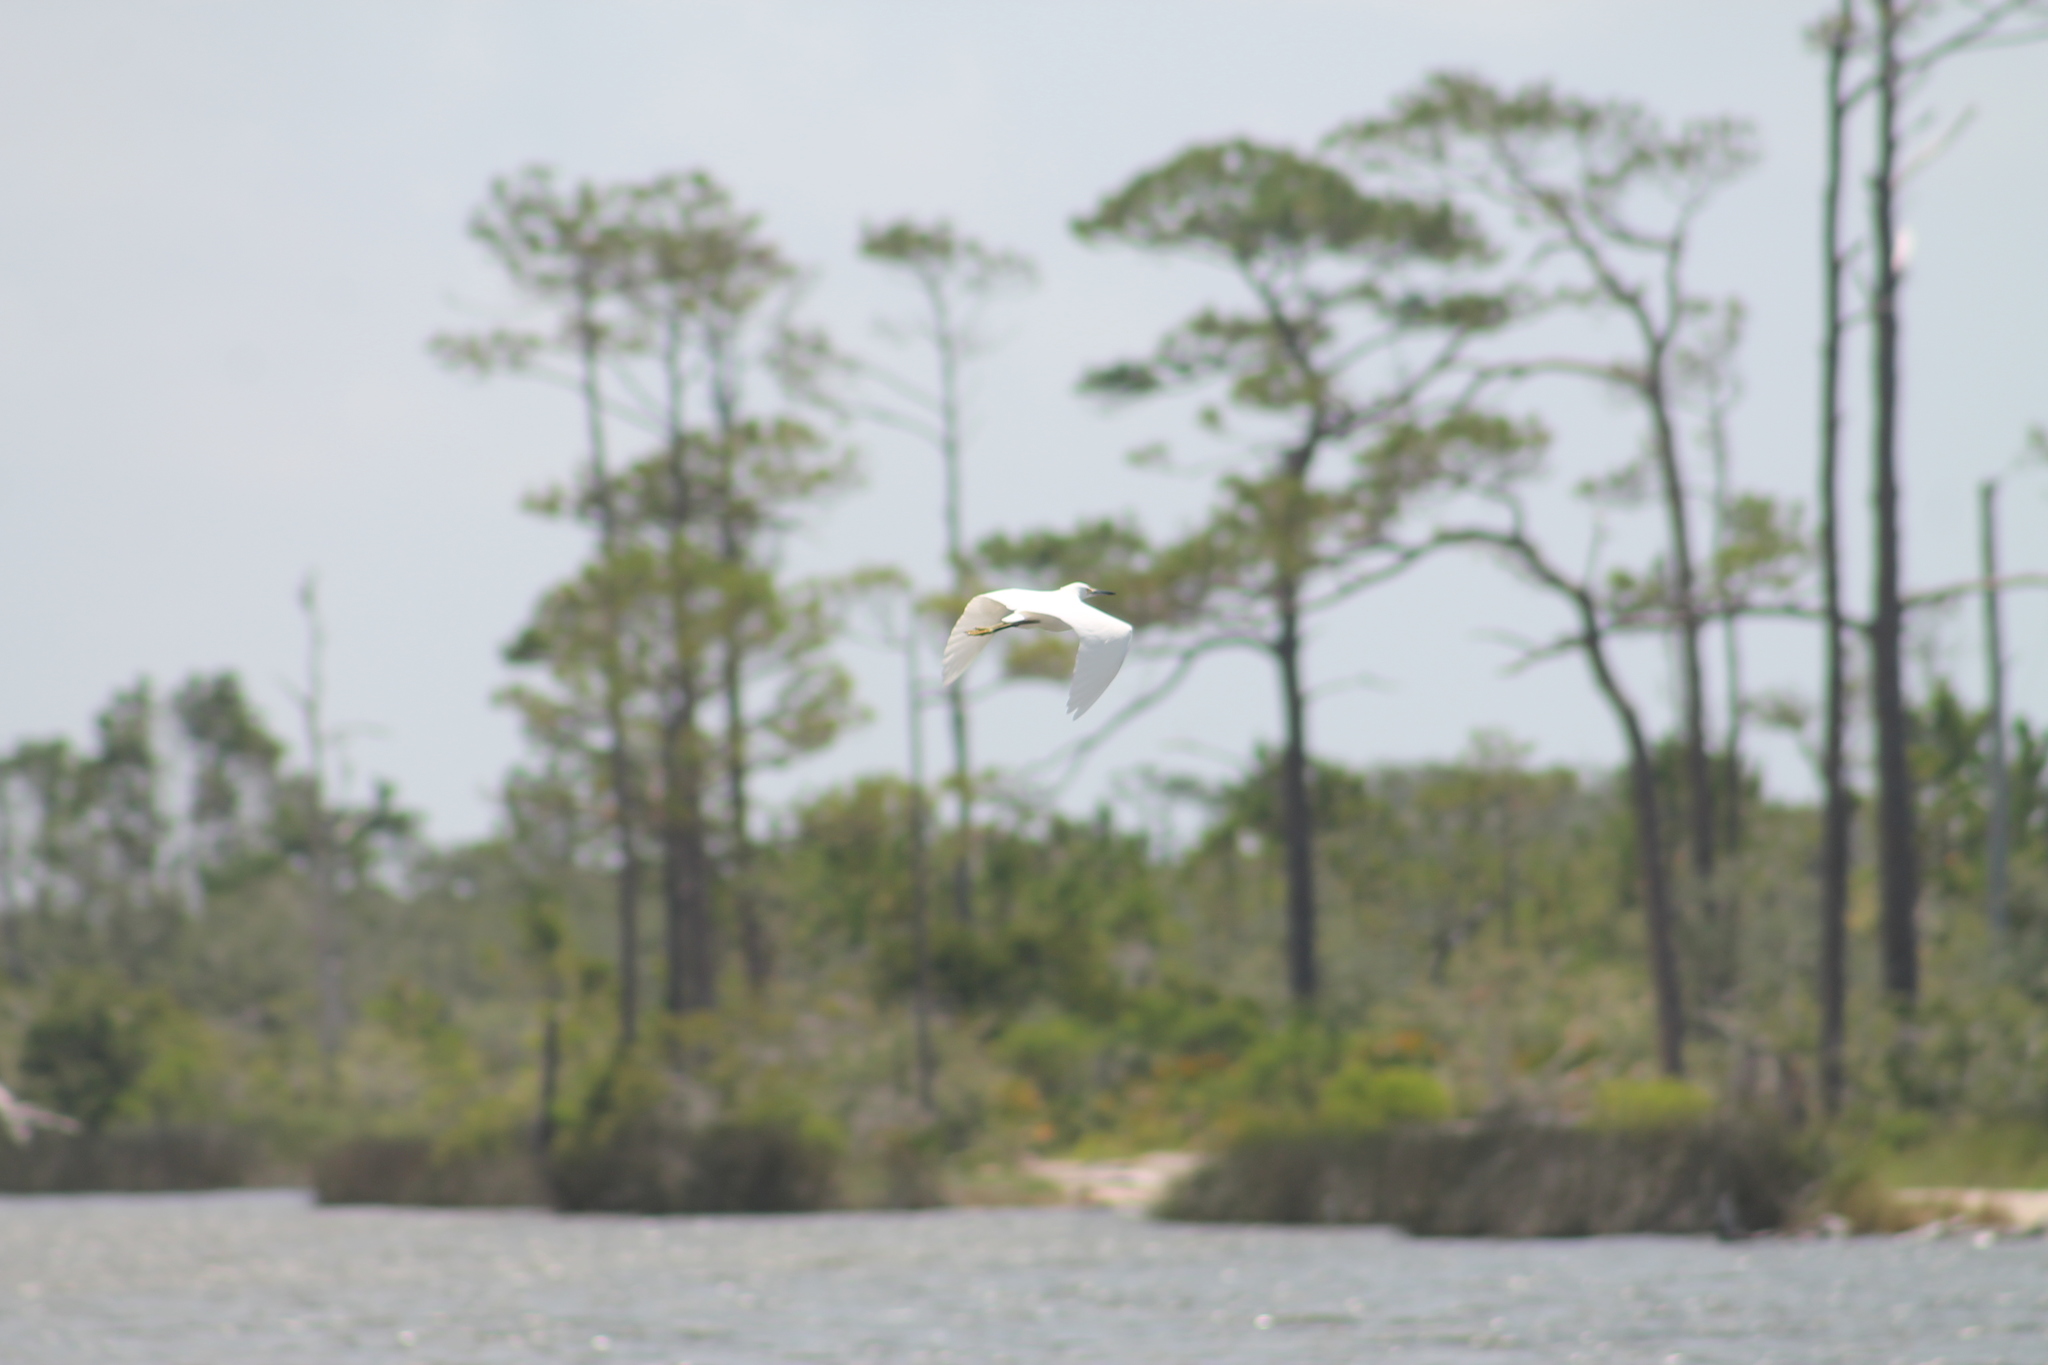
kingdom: Animalia
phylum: Chordata
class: Aves
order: Pelecaniformes
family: Ardeidae
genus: Egretta
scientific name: Egretta thula
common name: Snowy egret
